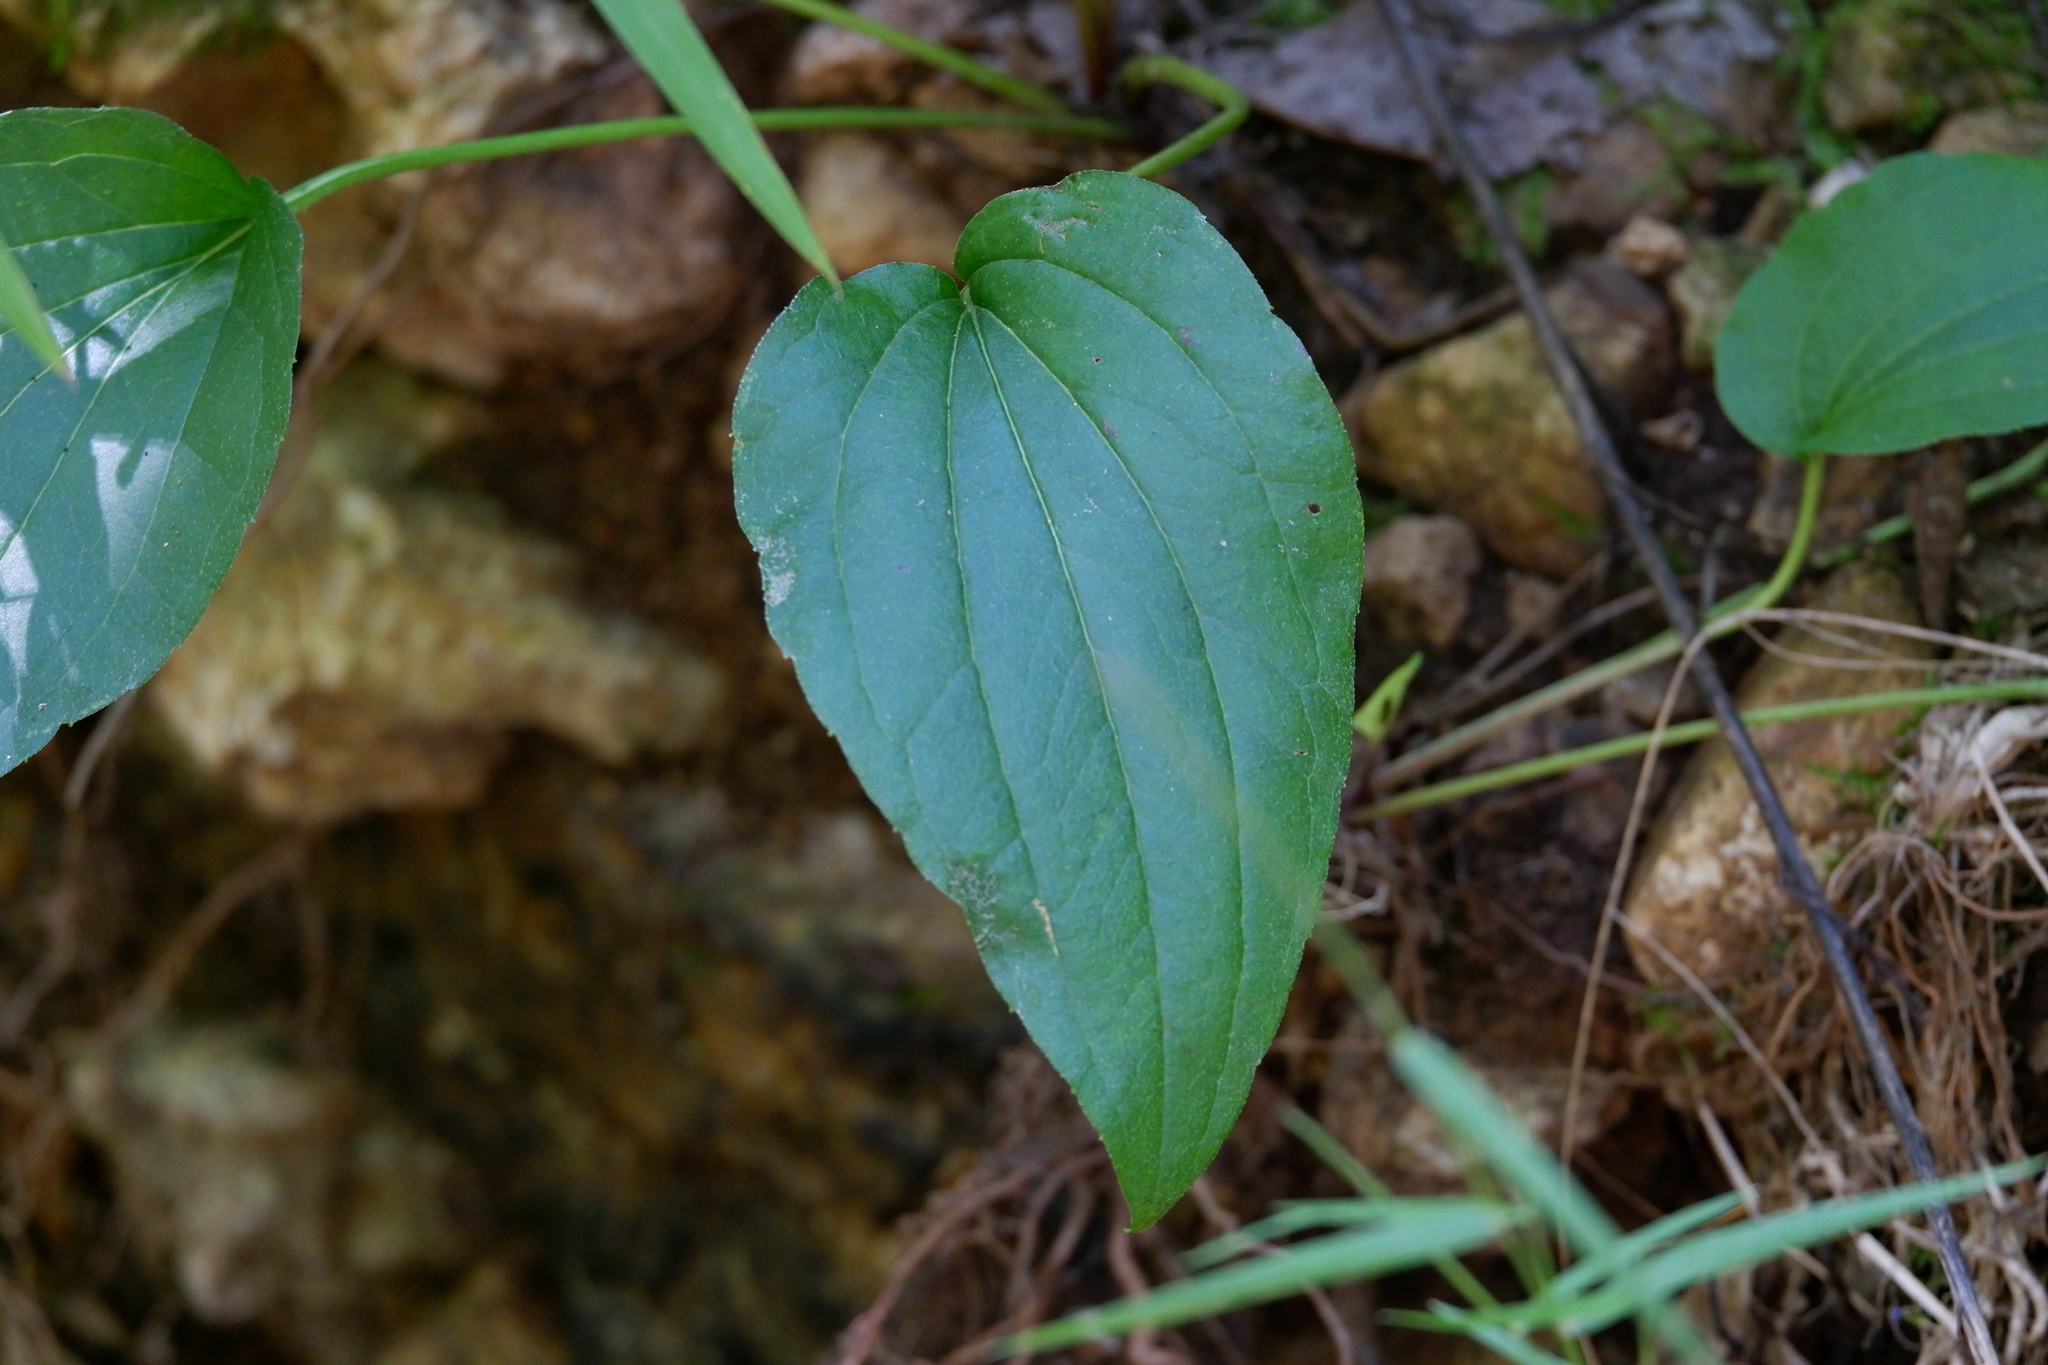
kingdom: Plantae
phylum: Tracheophyta
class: Liliopsida
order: Liliales
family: Smilacaceae
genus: Smilax
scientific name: Smilax tamnoides
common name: Hellfetter
